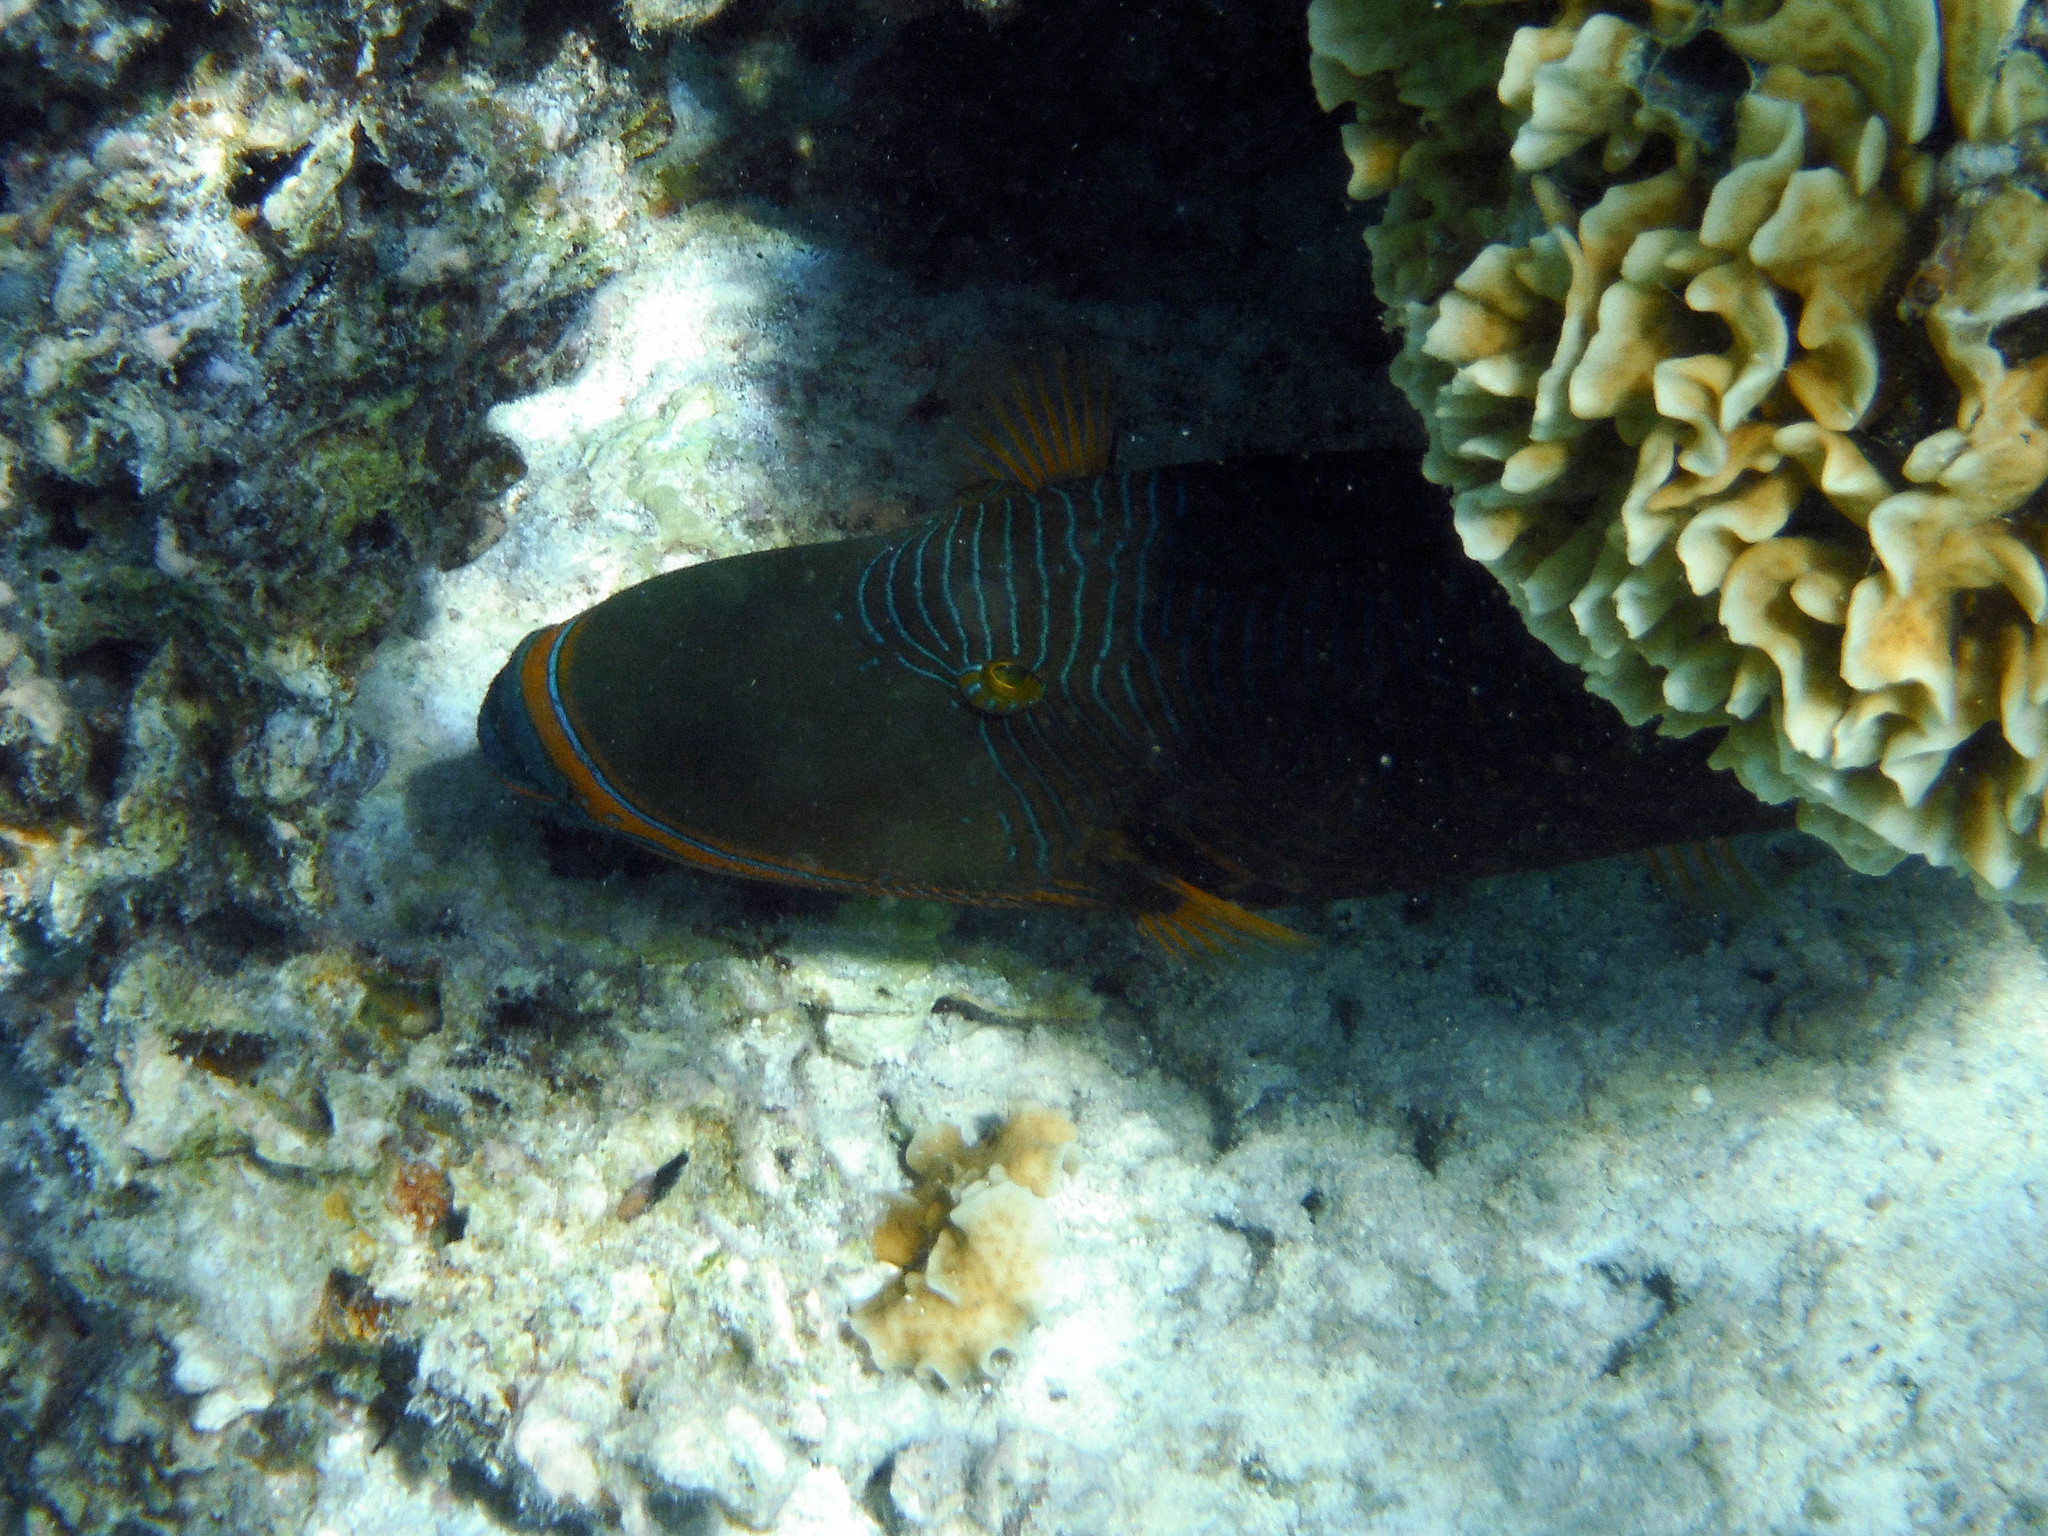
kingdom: Animalia
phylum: Chordata
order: Tetraodontiformes
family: Balistidae
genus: Balistapus
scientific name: Balistapus undulatus
